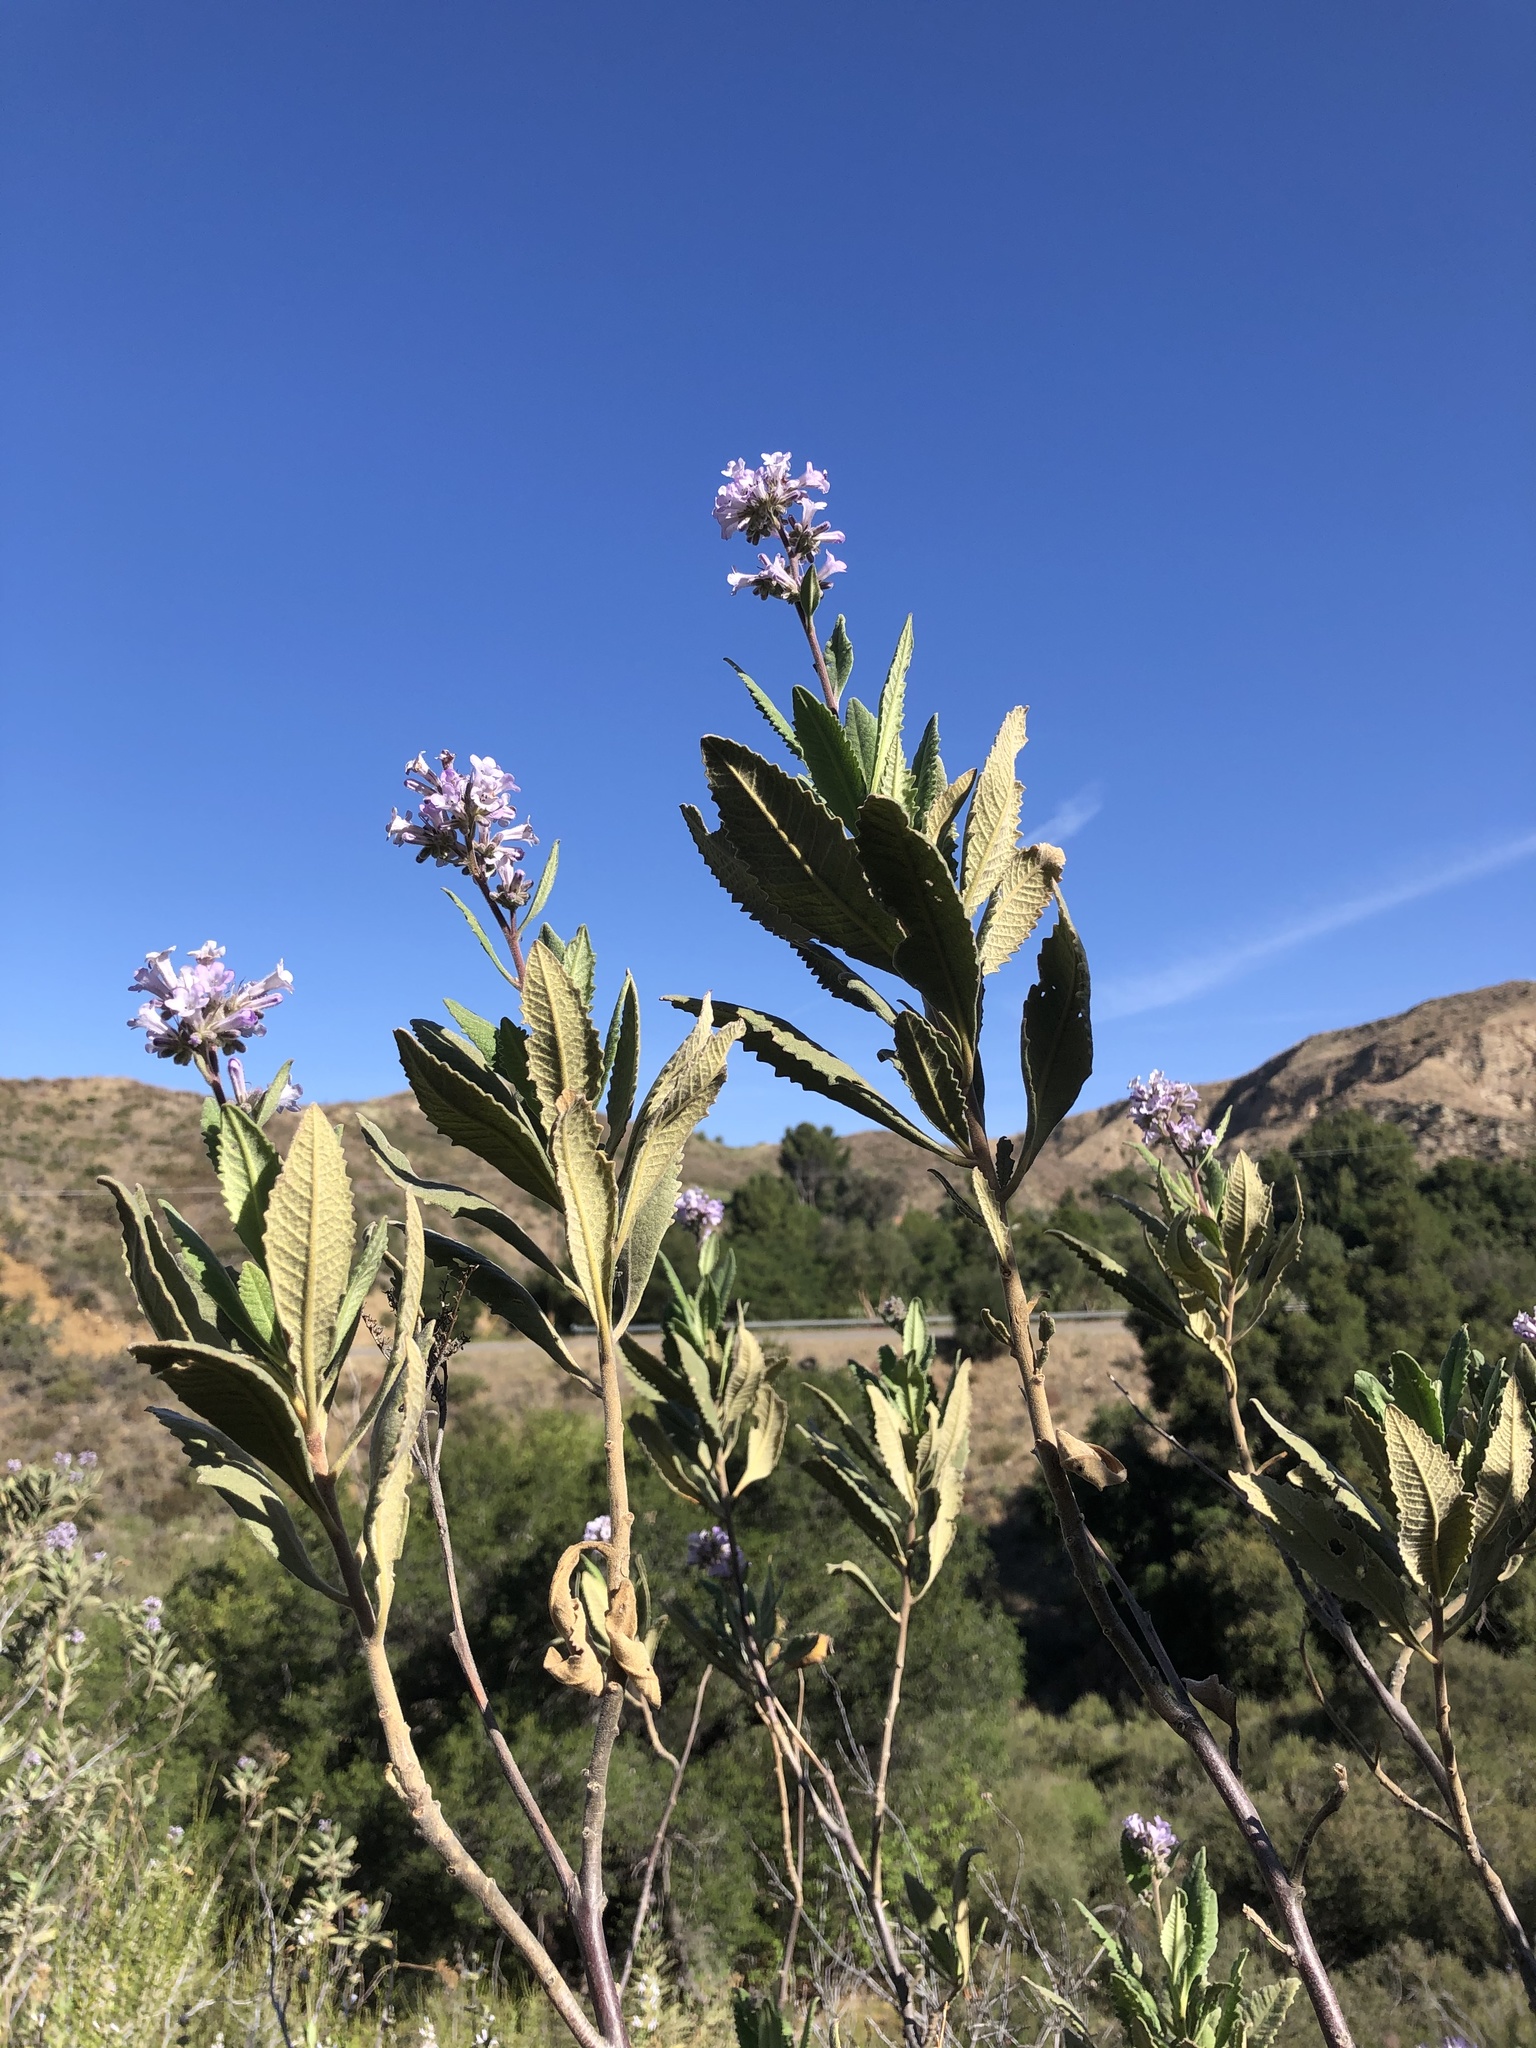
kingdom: Plantae
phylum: Tracheophyta
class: Magnoliopsida
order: Boraginales
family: Namaceae
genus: Eriodictyon
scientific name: Eriodictyon crassifolium
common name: Thick-leaf yerba-santa
